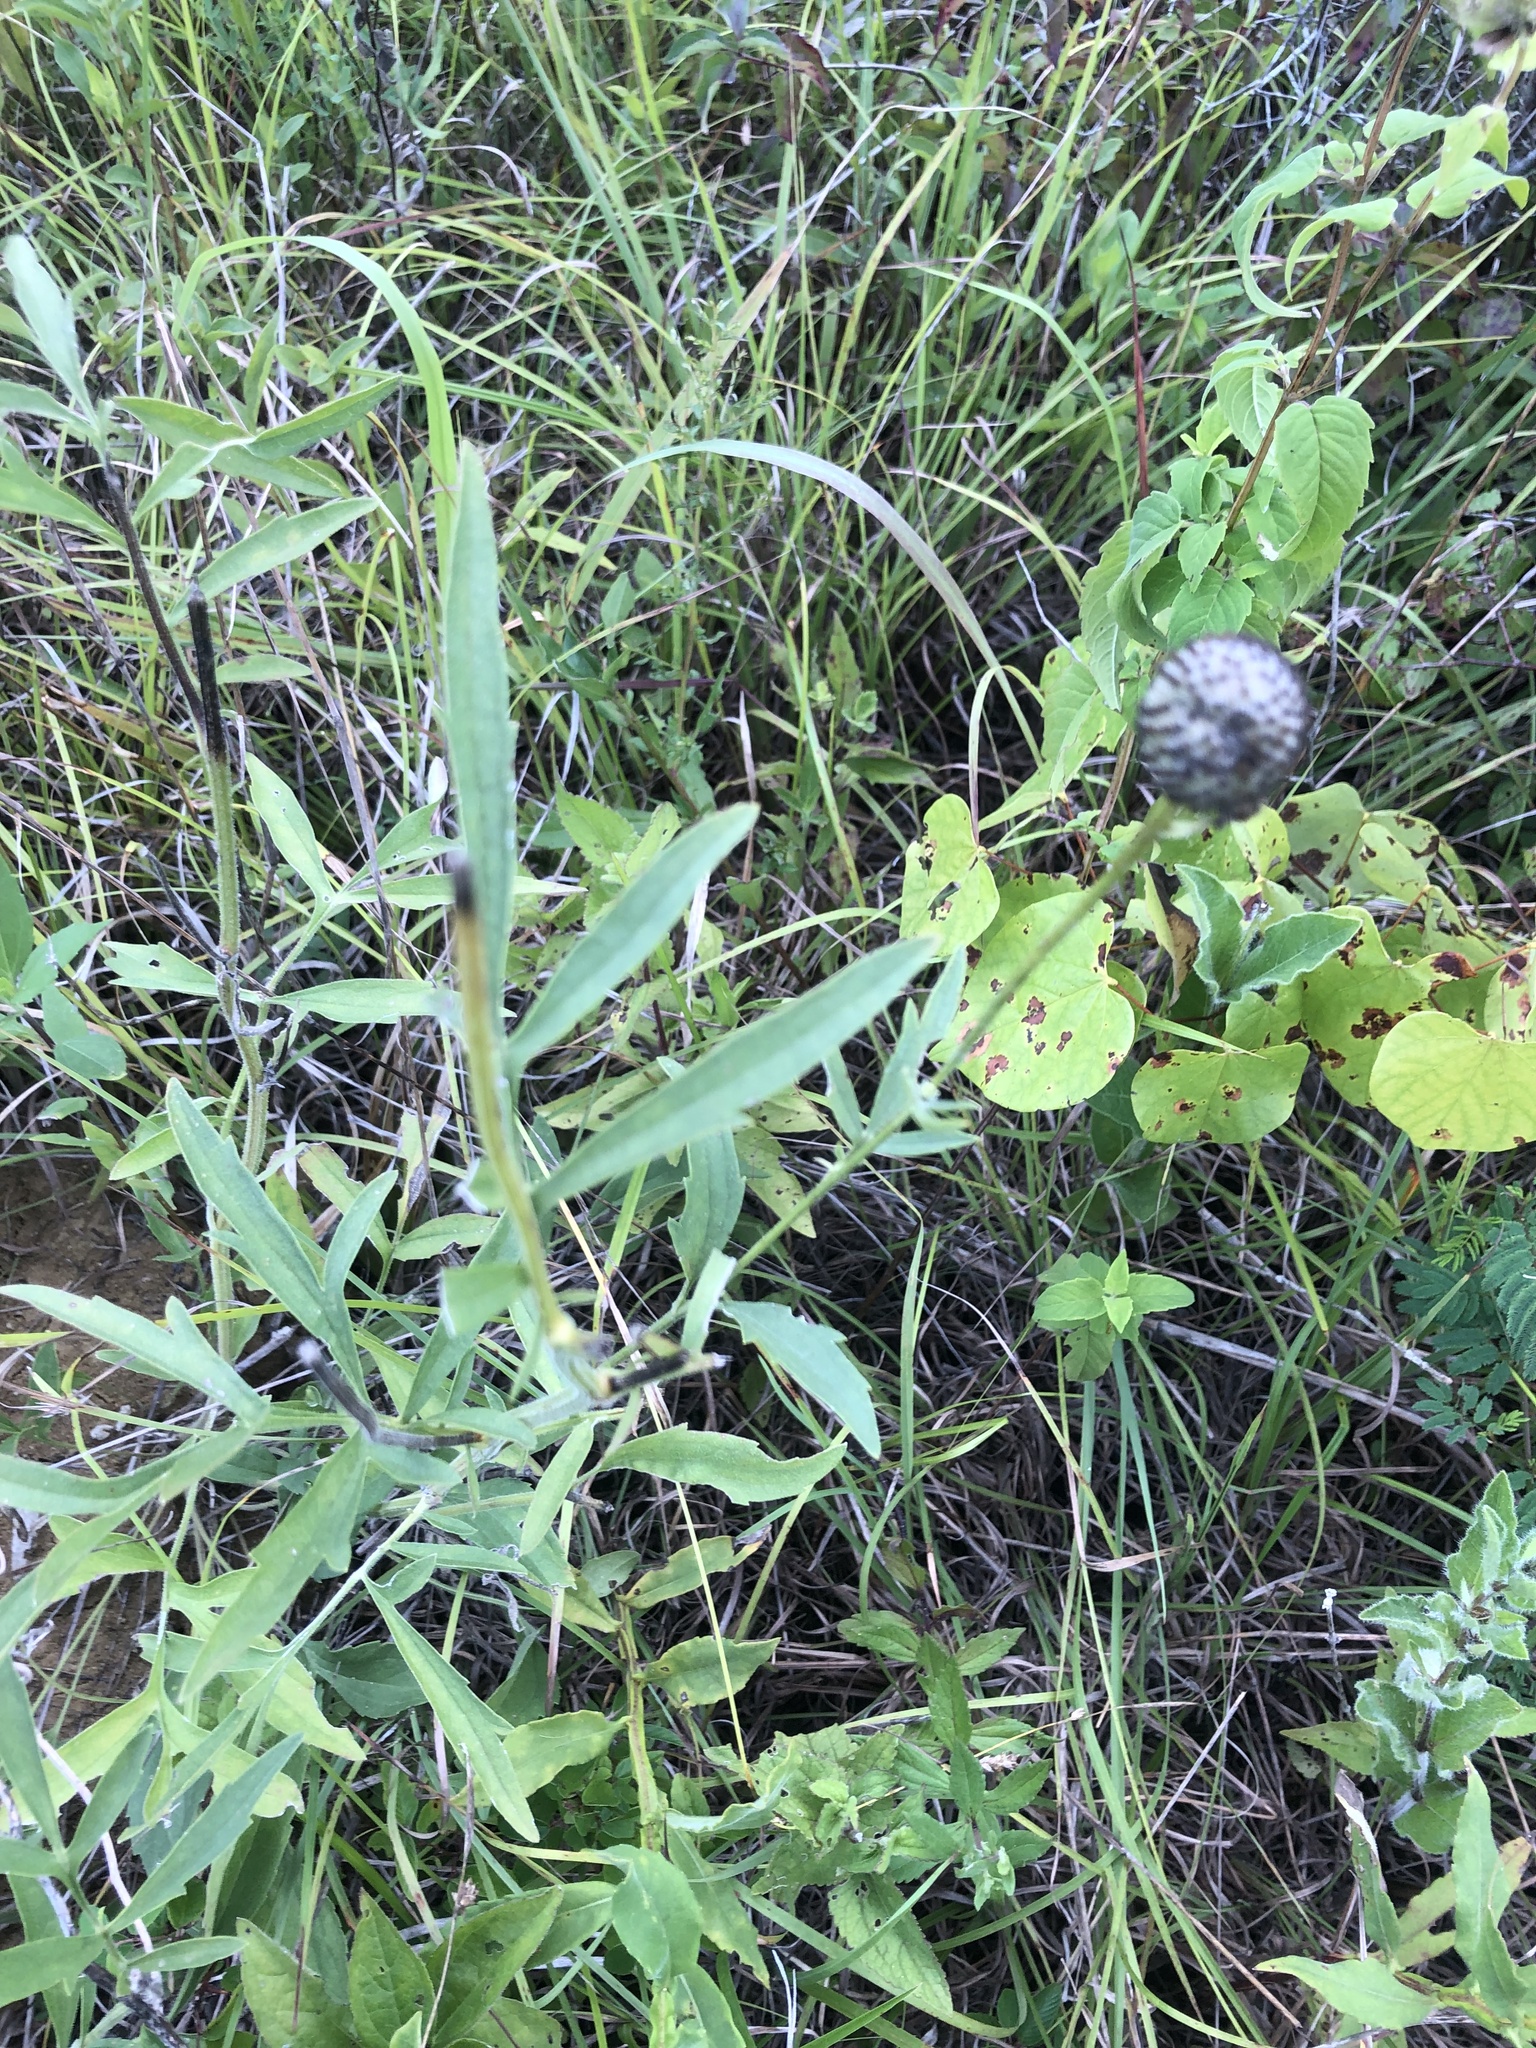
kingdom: Plantae
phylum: Tracheophyta
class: Magnoliopsida
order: Asterales
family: Asteraceae
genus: Ratibida
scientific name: Ratibida pinnata
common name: Drooping prairie-coneflower
